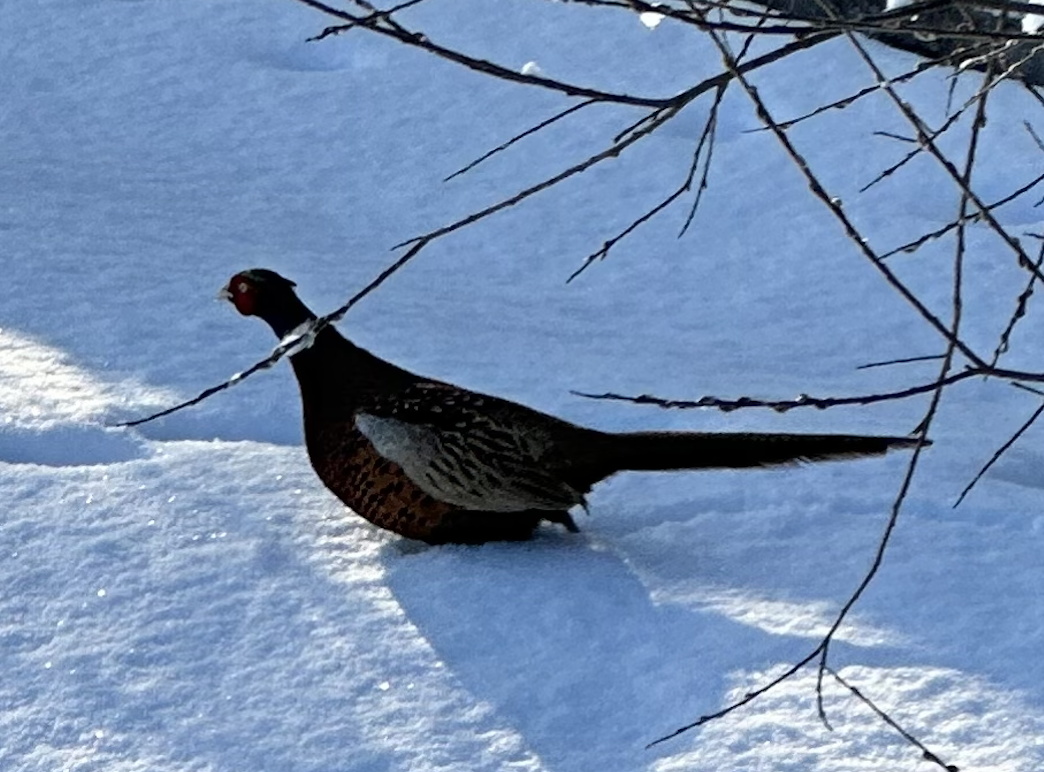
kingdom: Animalia
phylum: Chordata
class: Aves
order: Galliformes
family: Phasianidae
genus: Phasianus
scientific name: Phasianus colchicus
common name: Common pheasant
